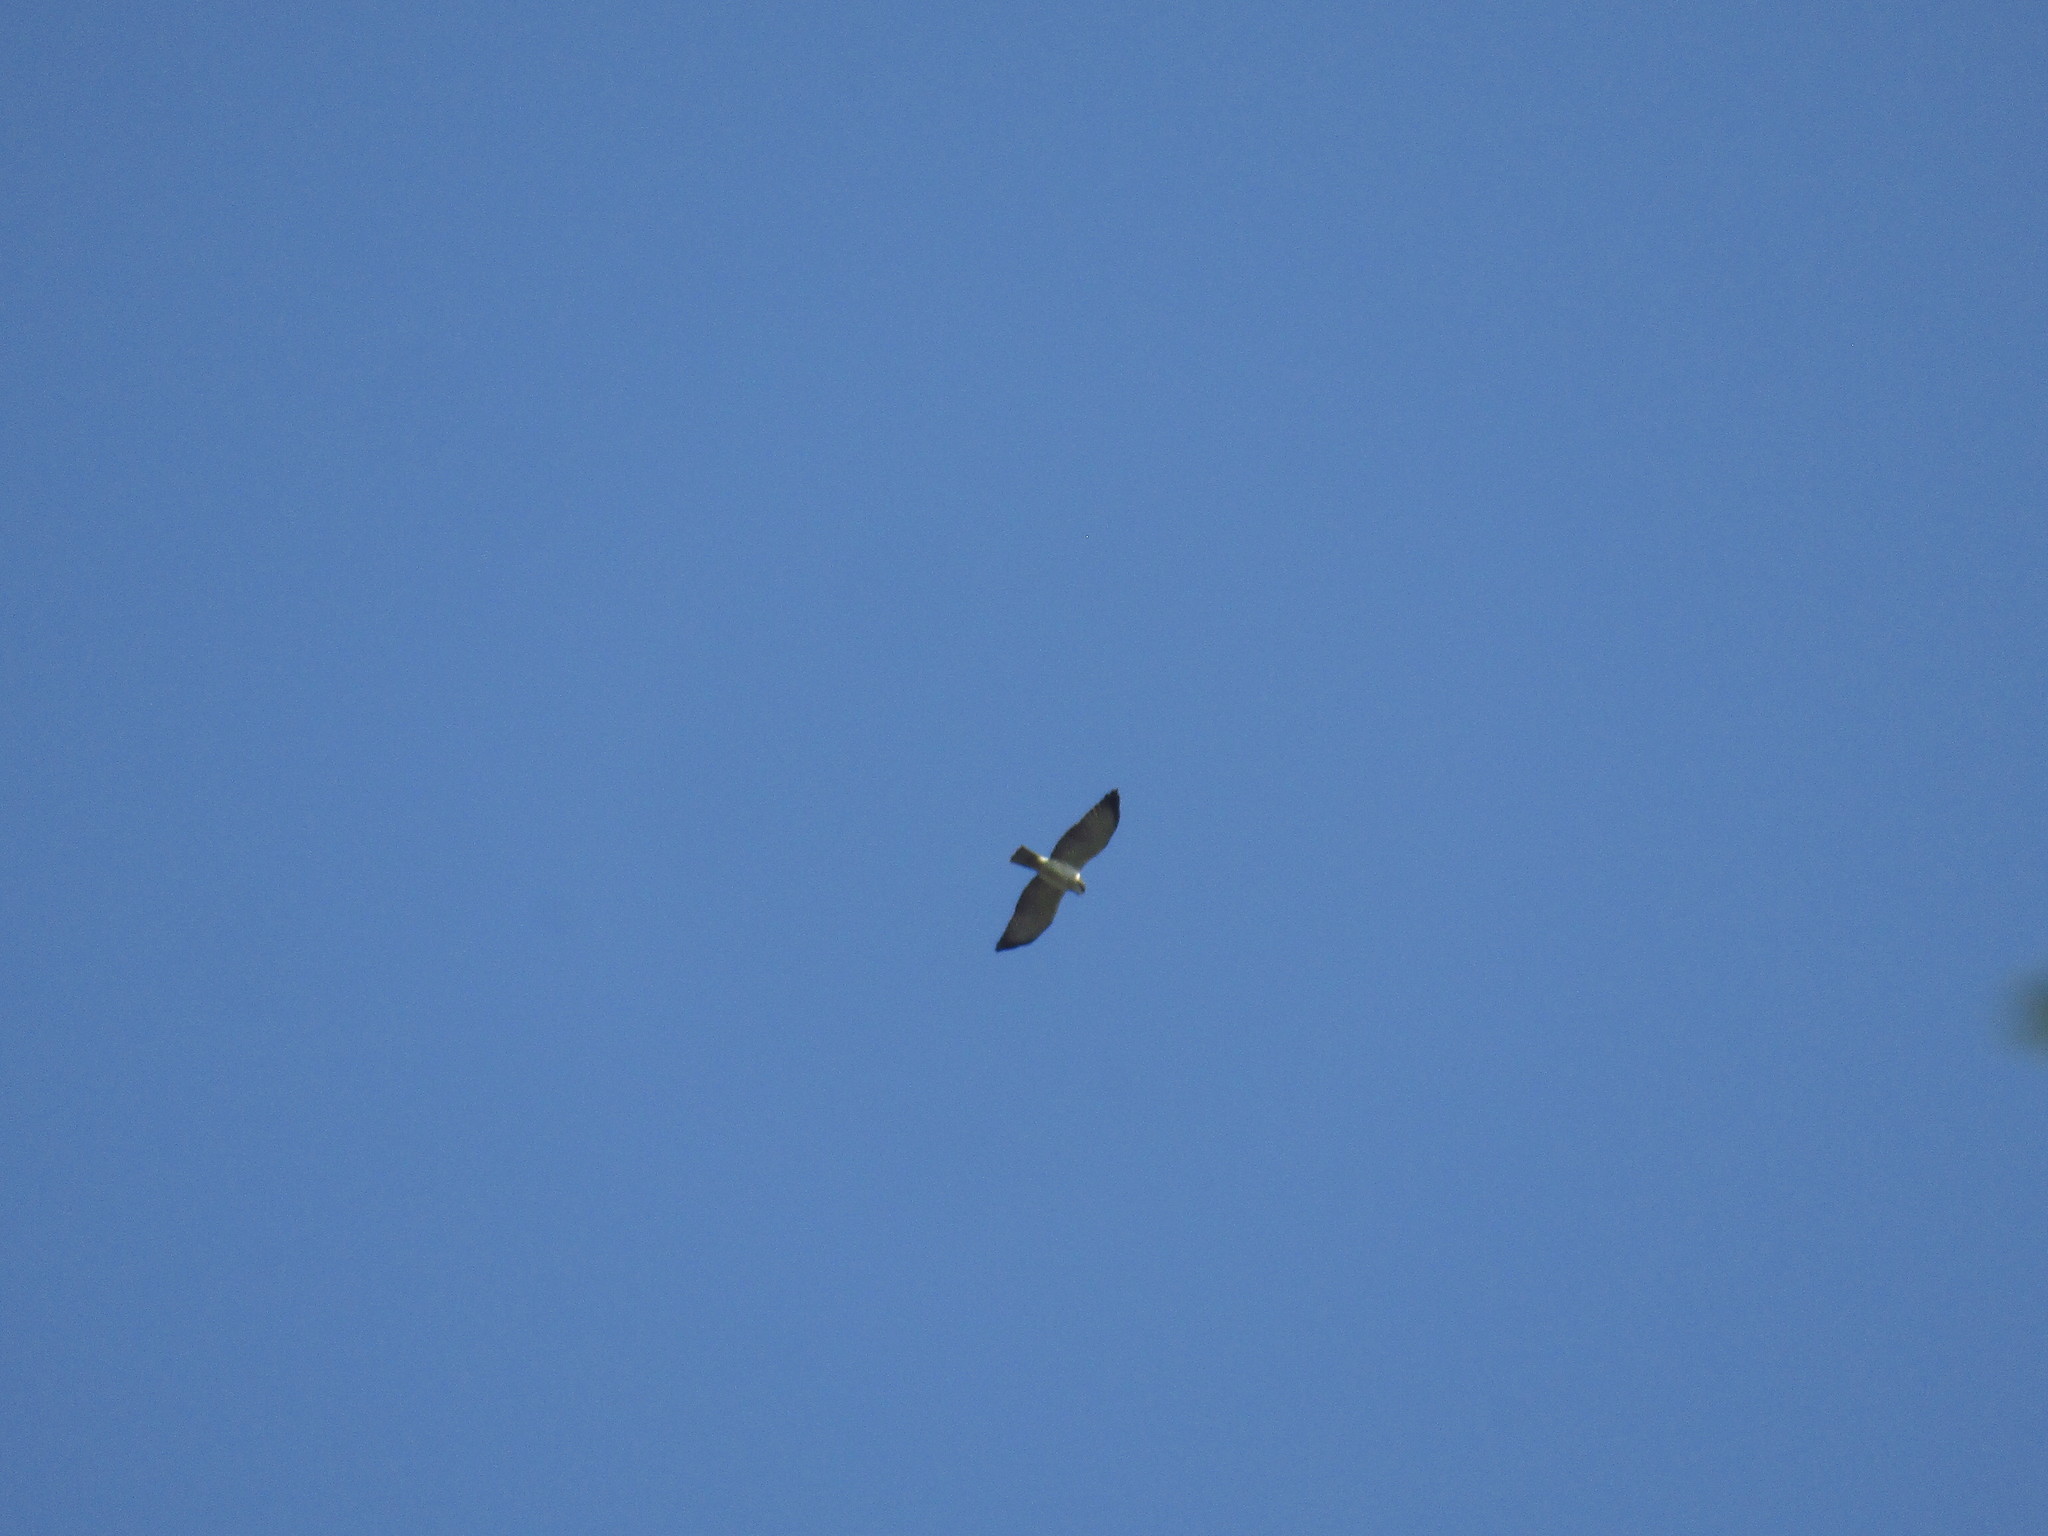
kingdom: Animalia
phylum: Chordata
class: Aves
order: Accipitriformes
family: Accipitridae
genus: Buteo
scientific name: Buteo brachyurus
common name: Short-tailed hawk
